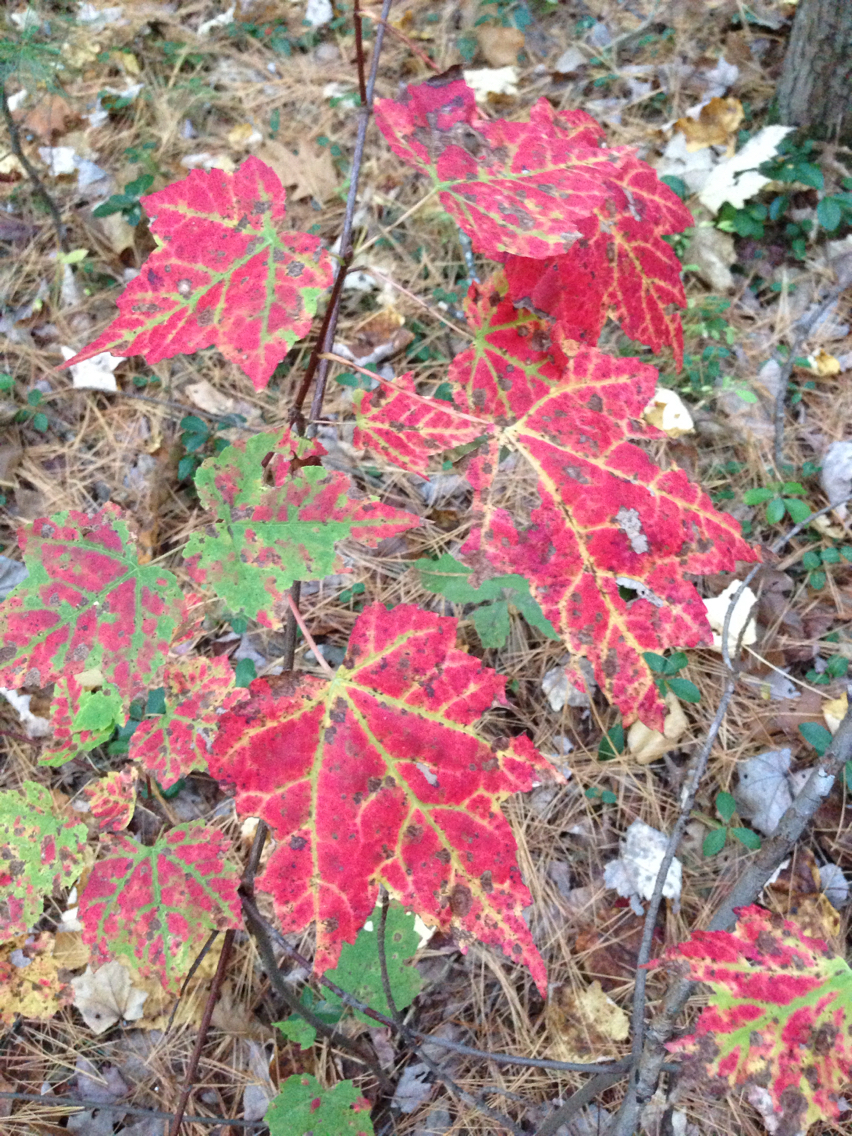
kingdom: Plantae
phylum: Tracheophyta
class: Magnoliopsida
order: Sapindales
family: Sapindaceae
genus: Acer
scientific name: Acer rubrum
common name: Red maple
